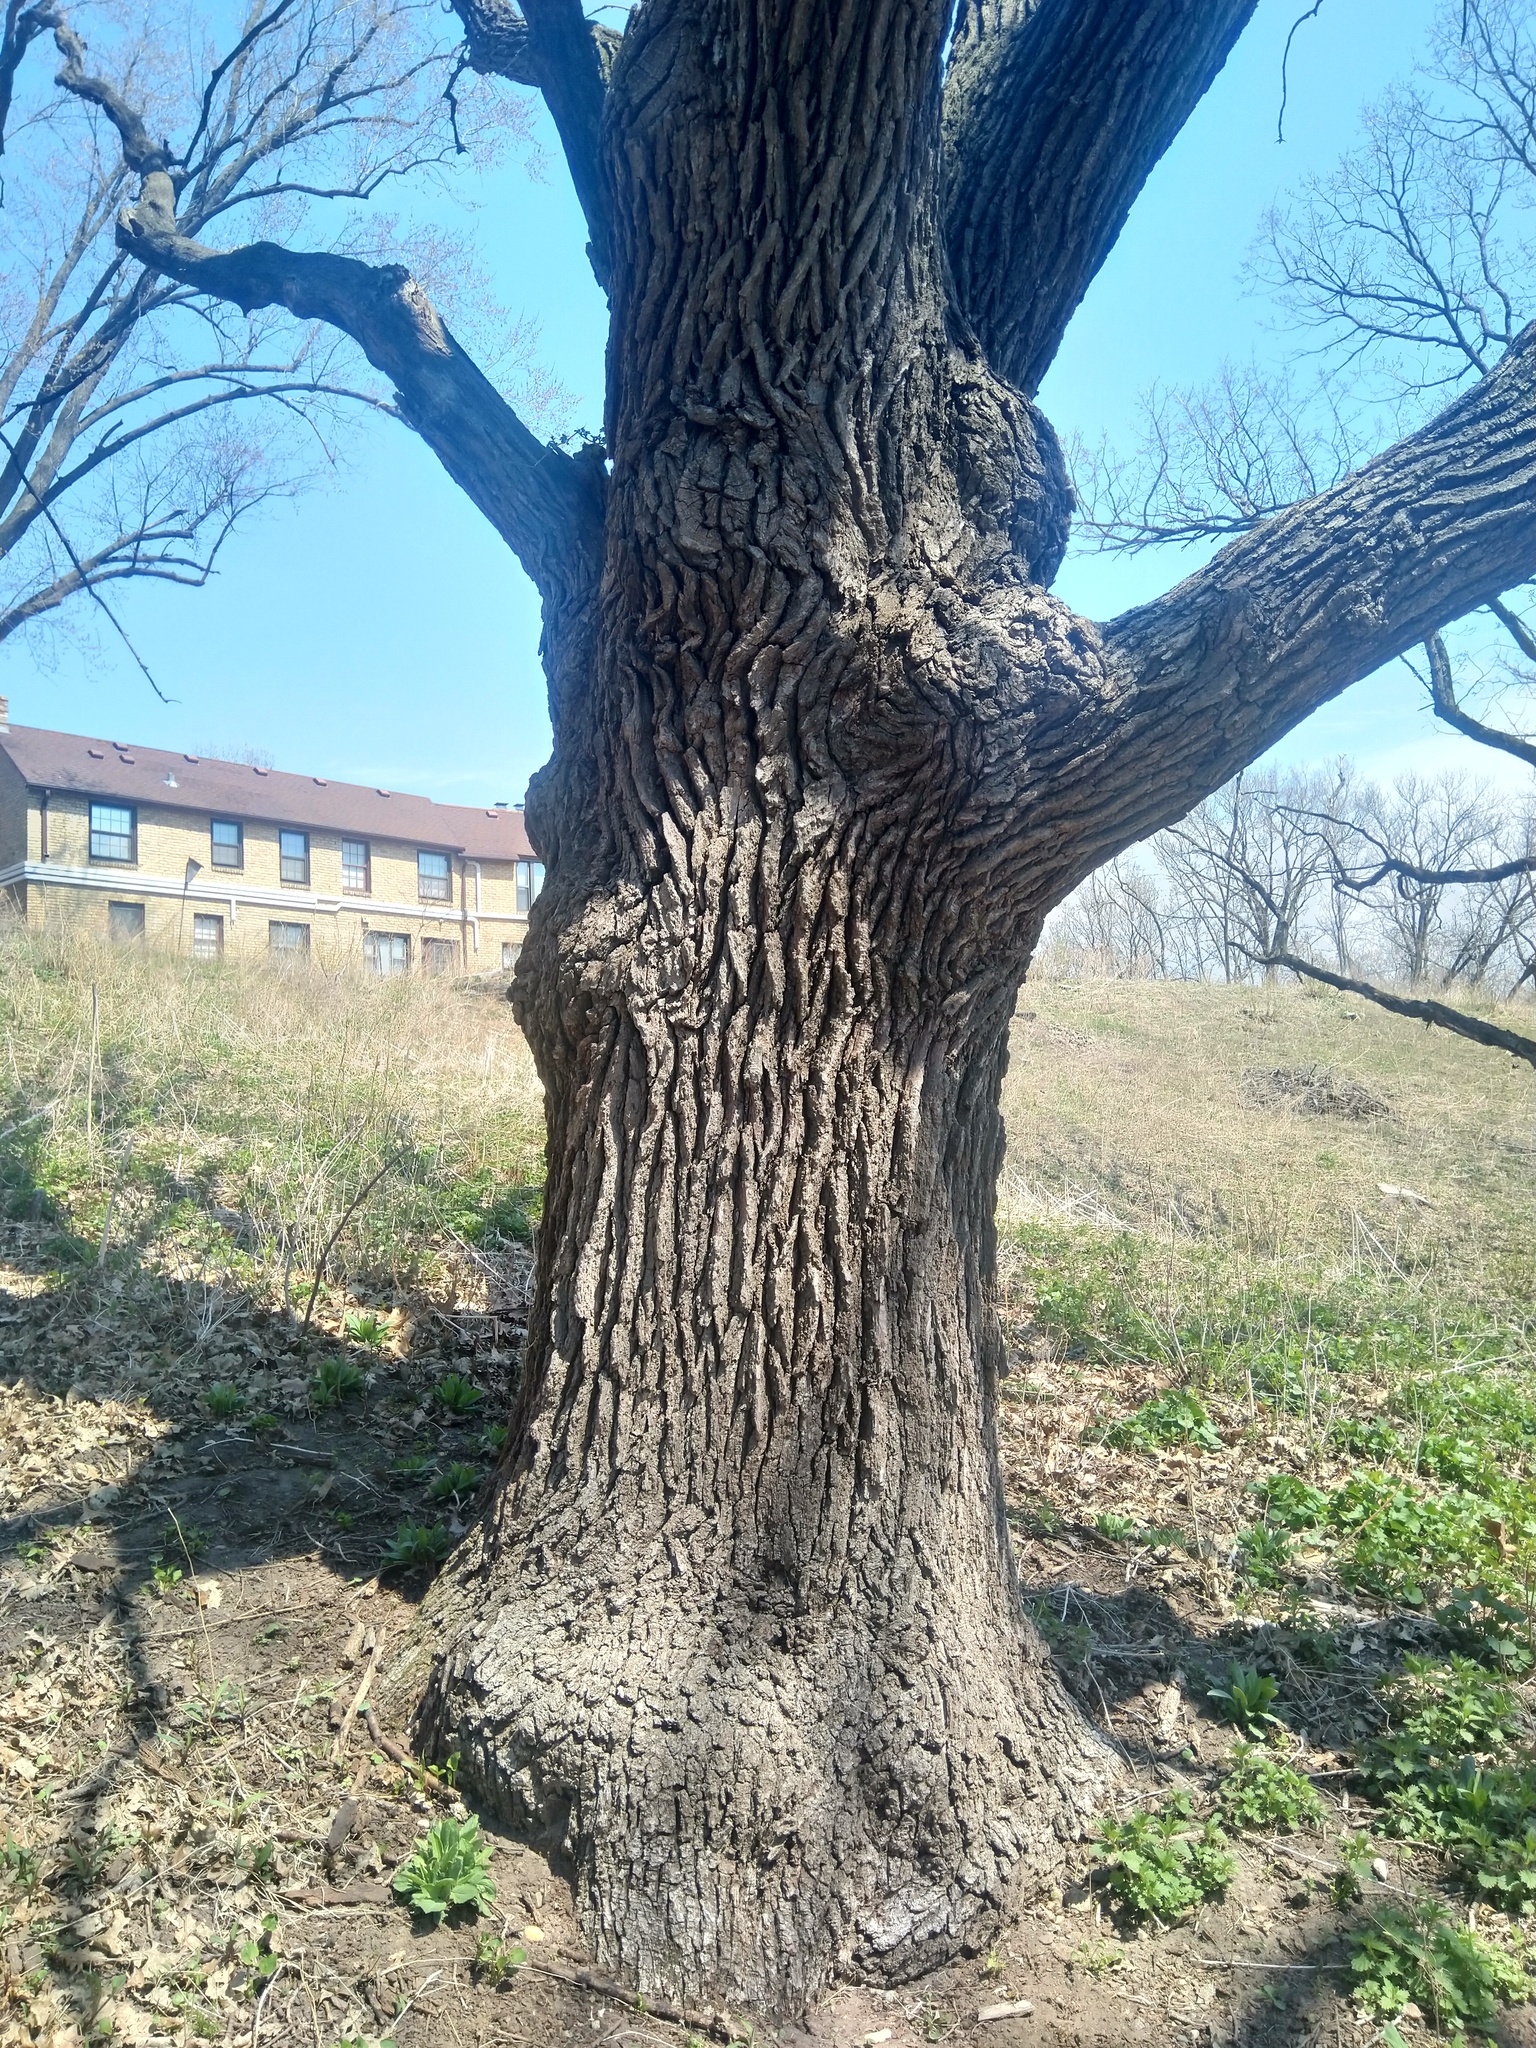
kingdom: Plantae
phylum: Tracheophyta
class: Magnoliopsida
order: Fagales
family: Fagaceae
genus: Quercus
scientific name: Quercus macrocarpa
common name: Bur oak
